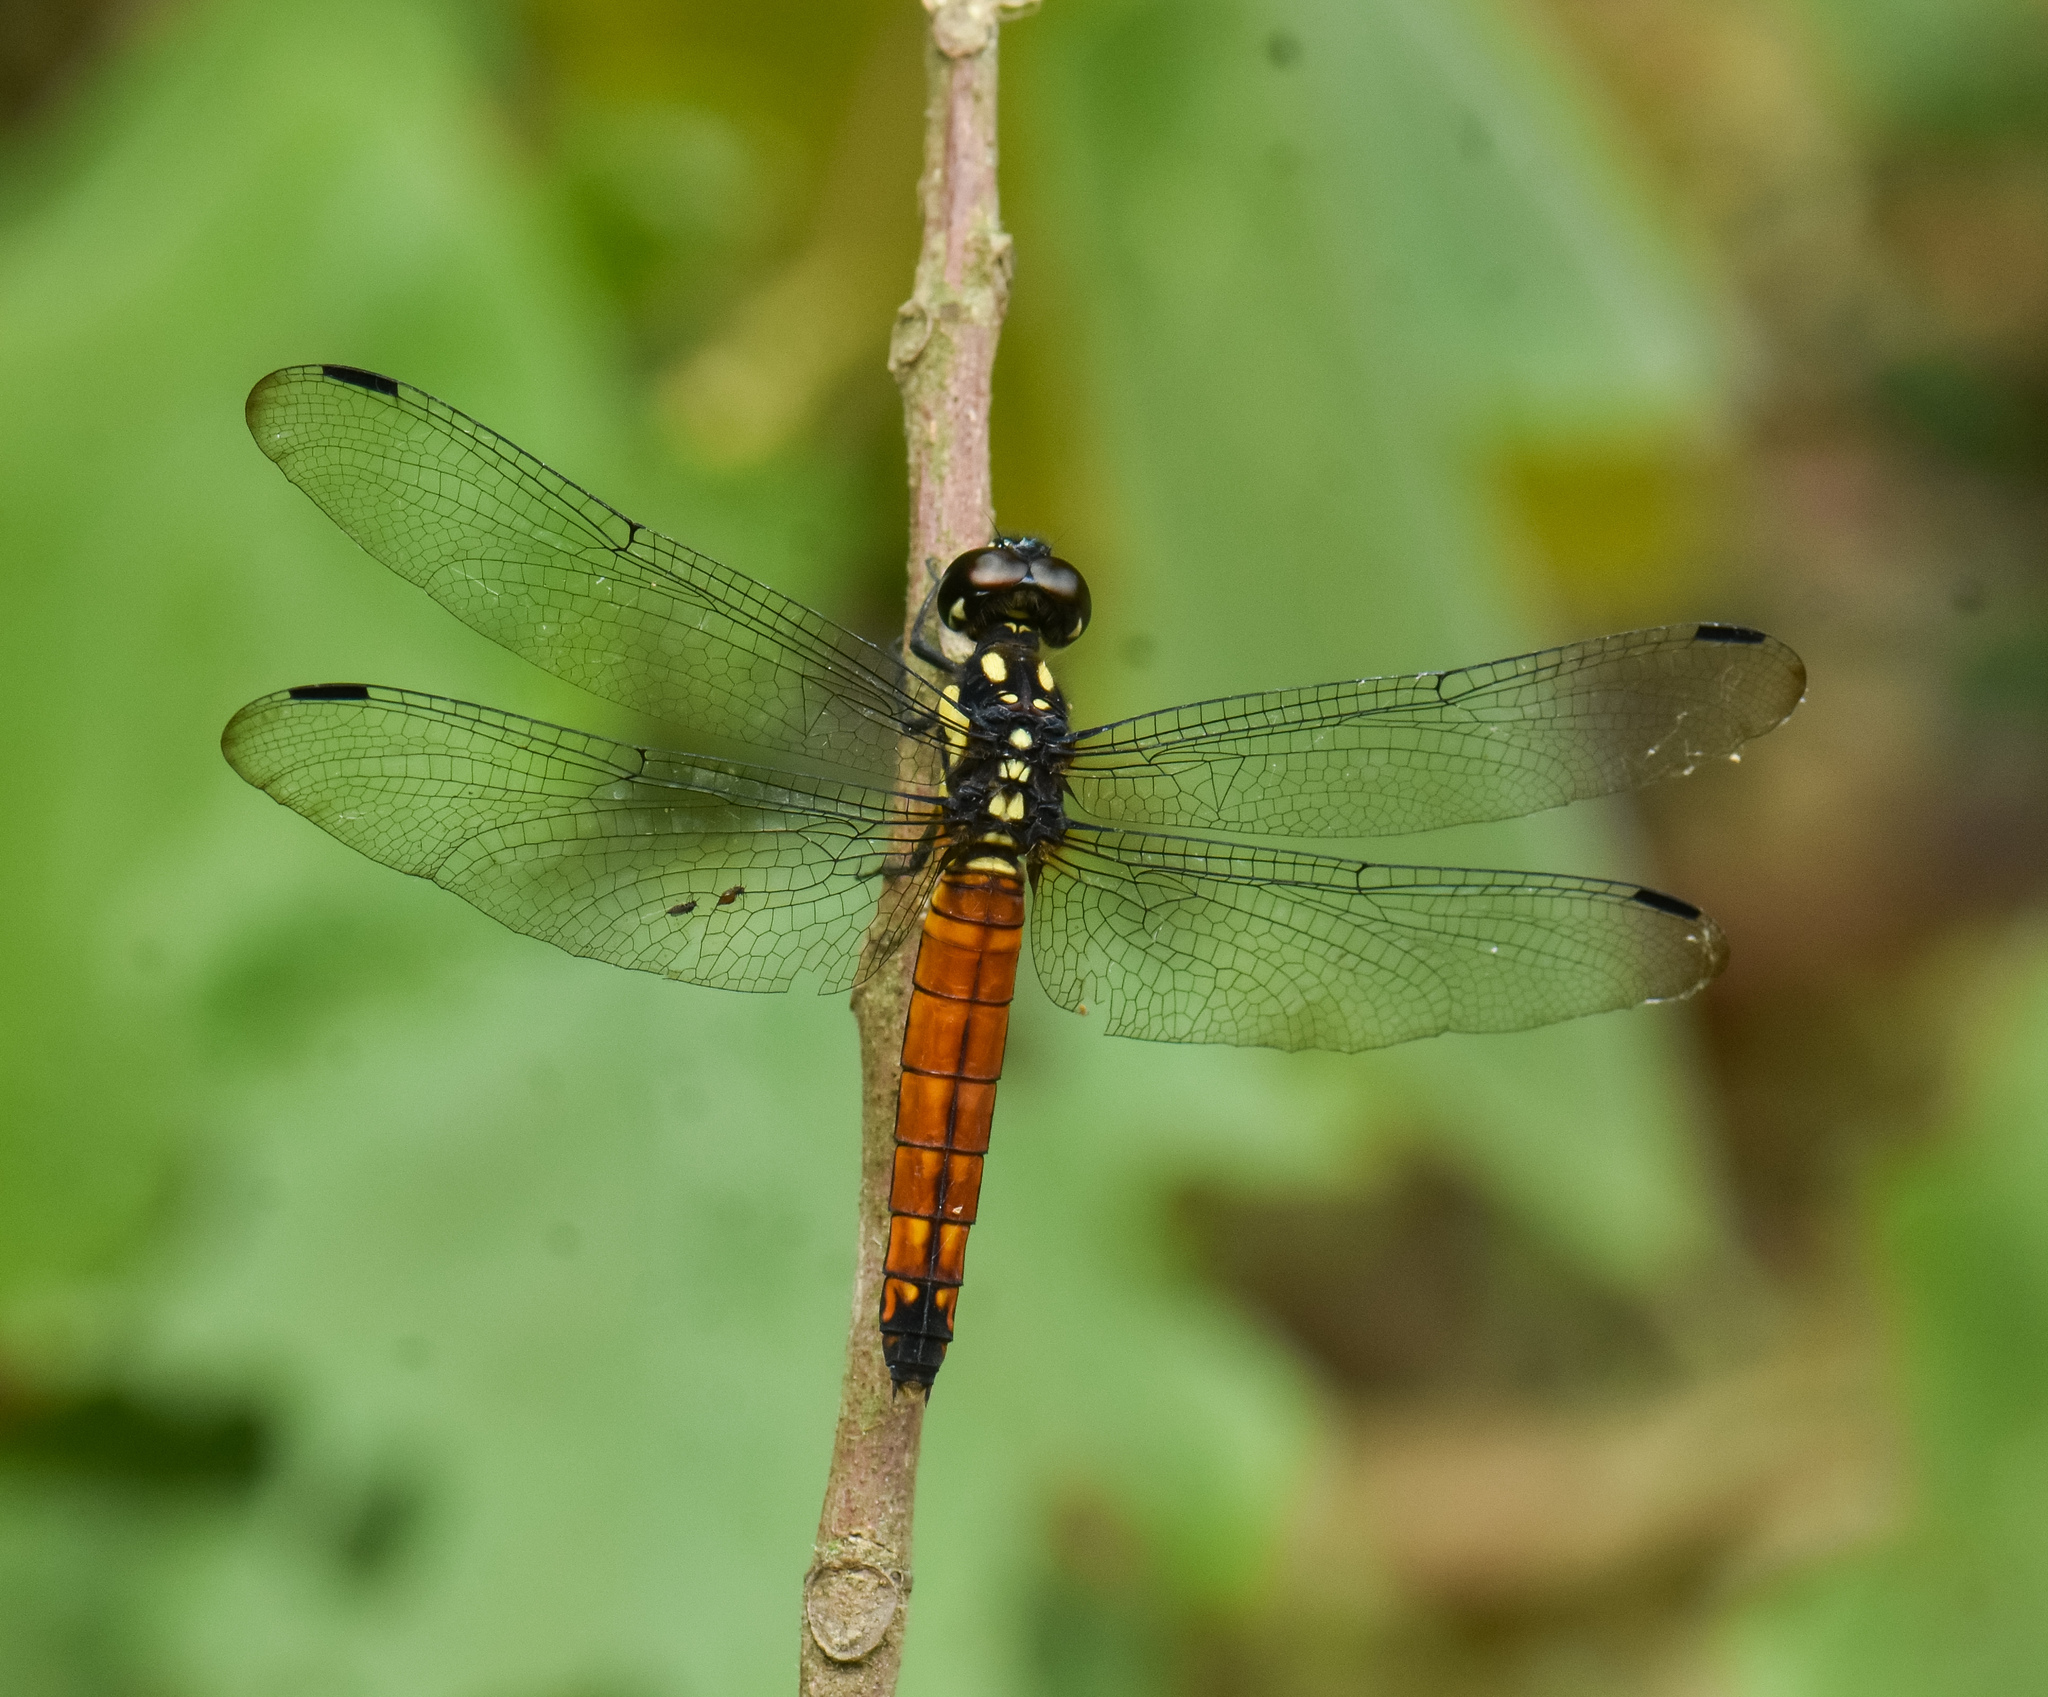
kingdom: Animalia
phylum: Arthropoda
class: Insecta
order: Odonata
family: Libellulidae
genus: Lyriothemis
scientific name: Lyriothemis tricolor
